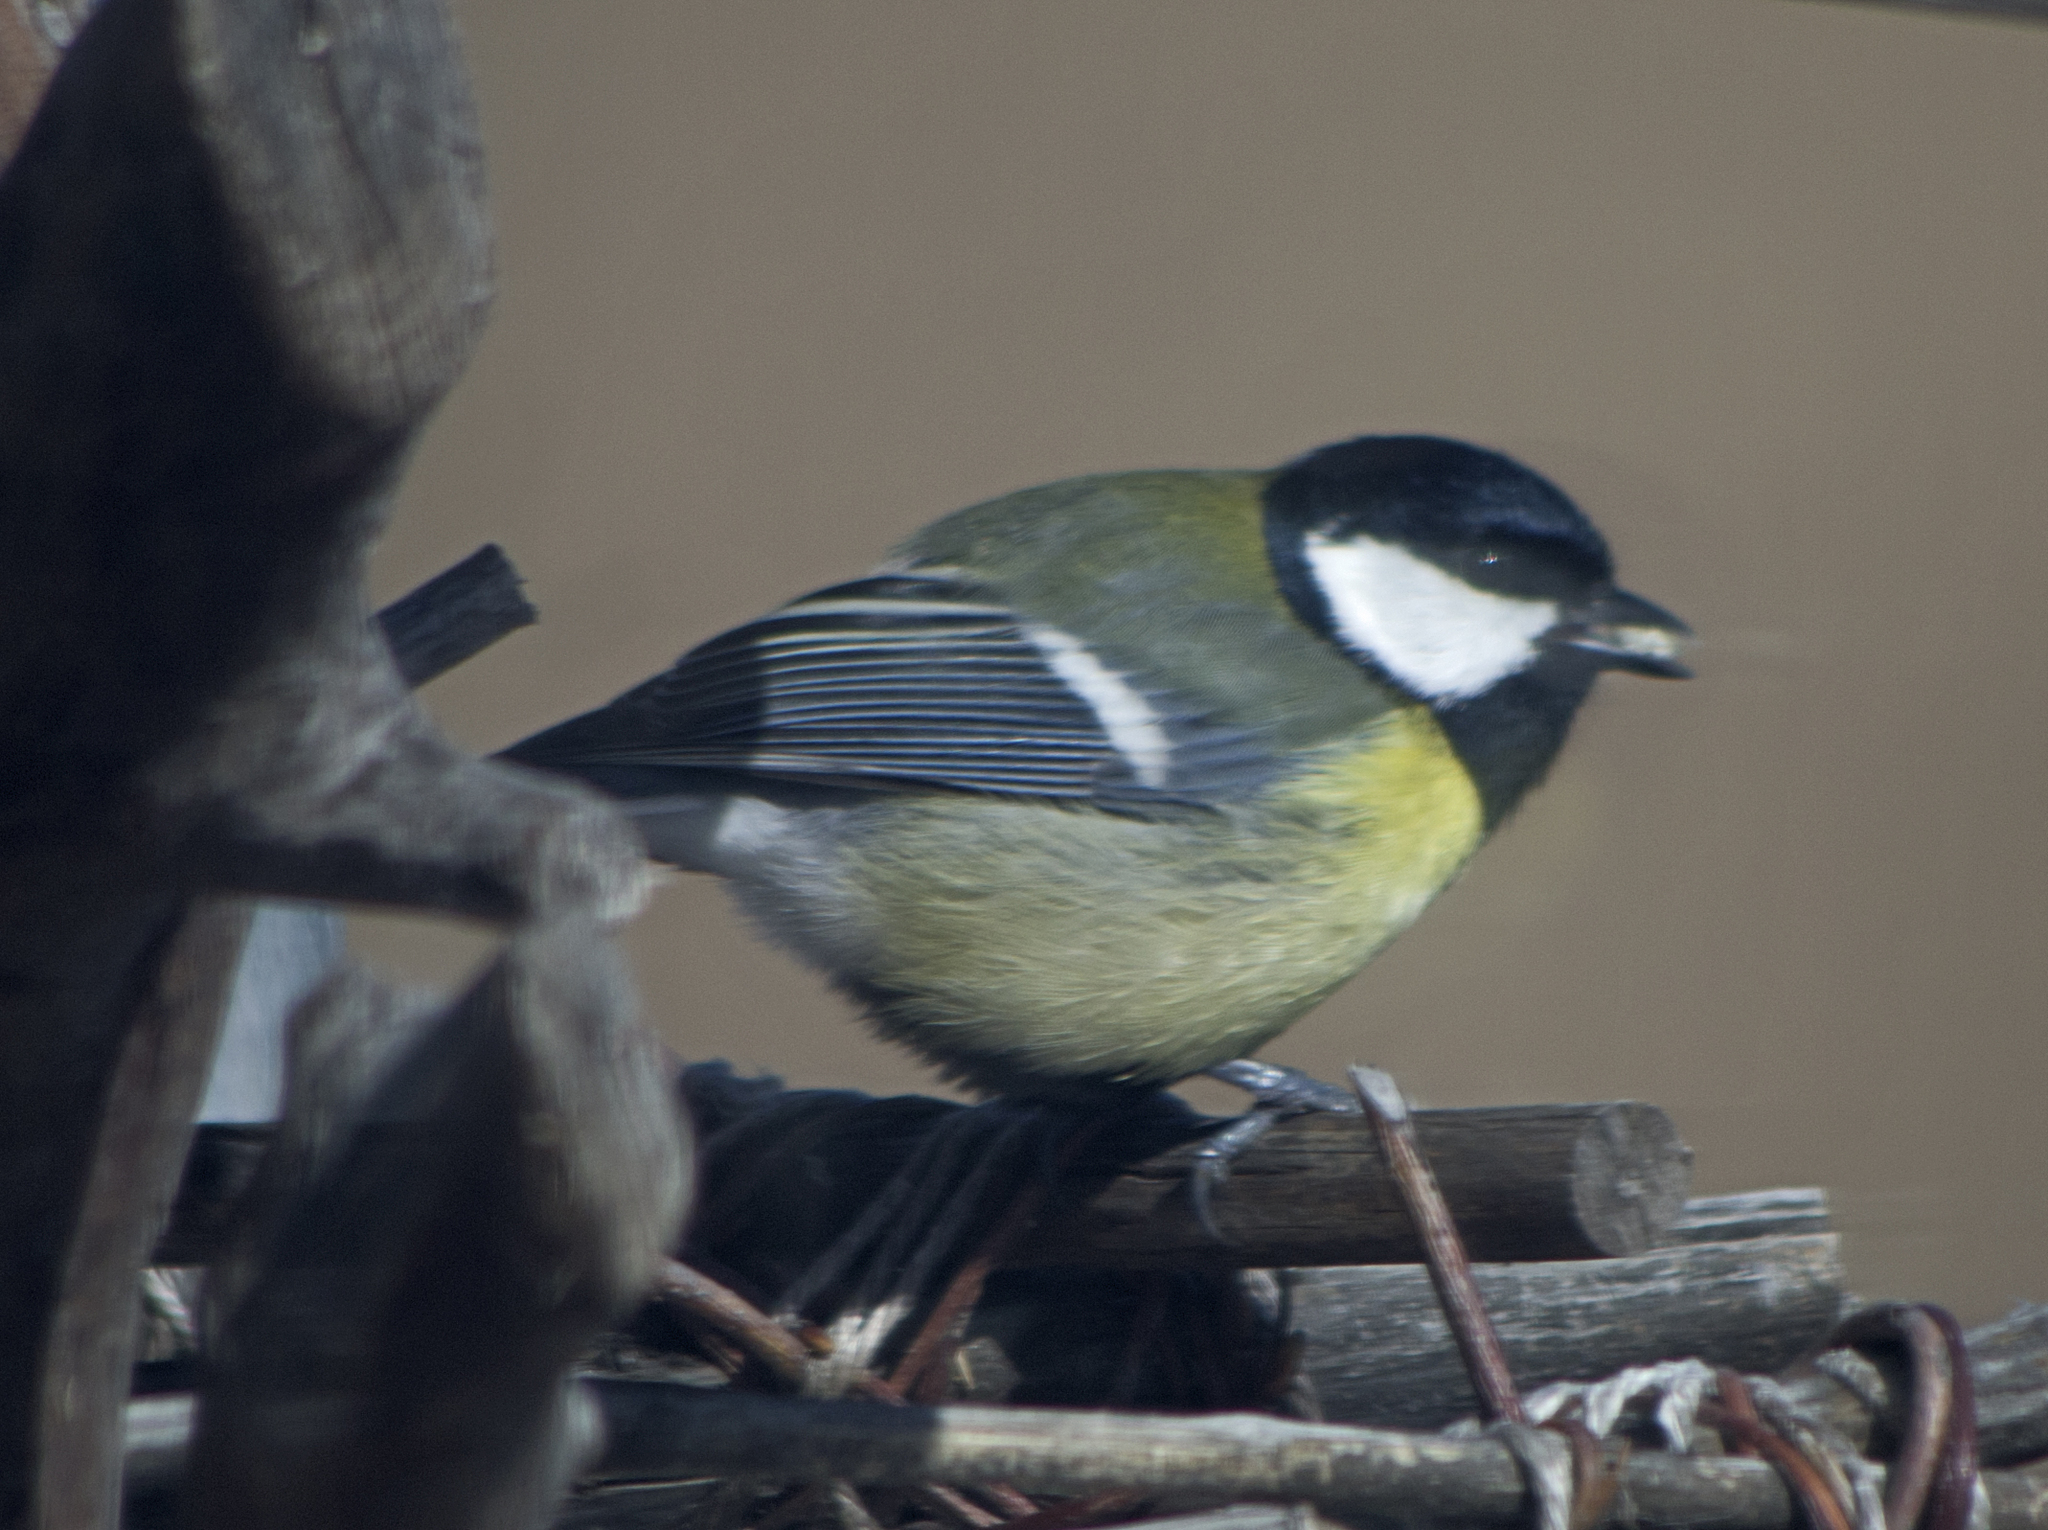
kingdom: Animalia
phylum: Chordata
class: Aves
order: Passeriformes
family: Paridae
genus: Parus
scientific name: Parus major
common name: Great tit
